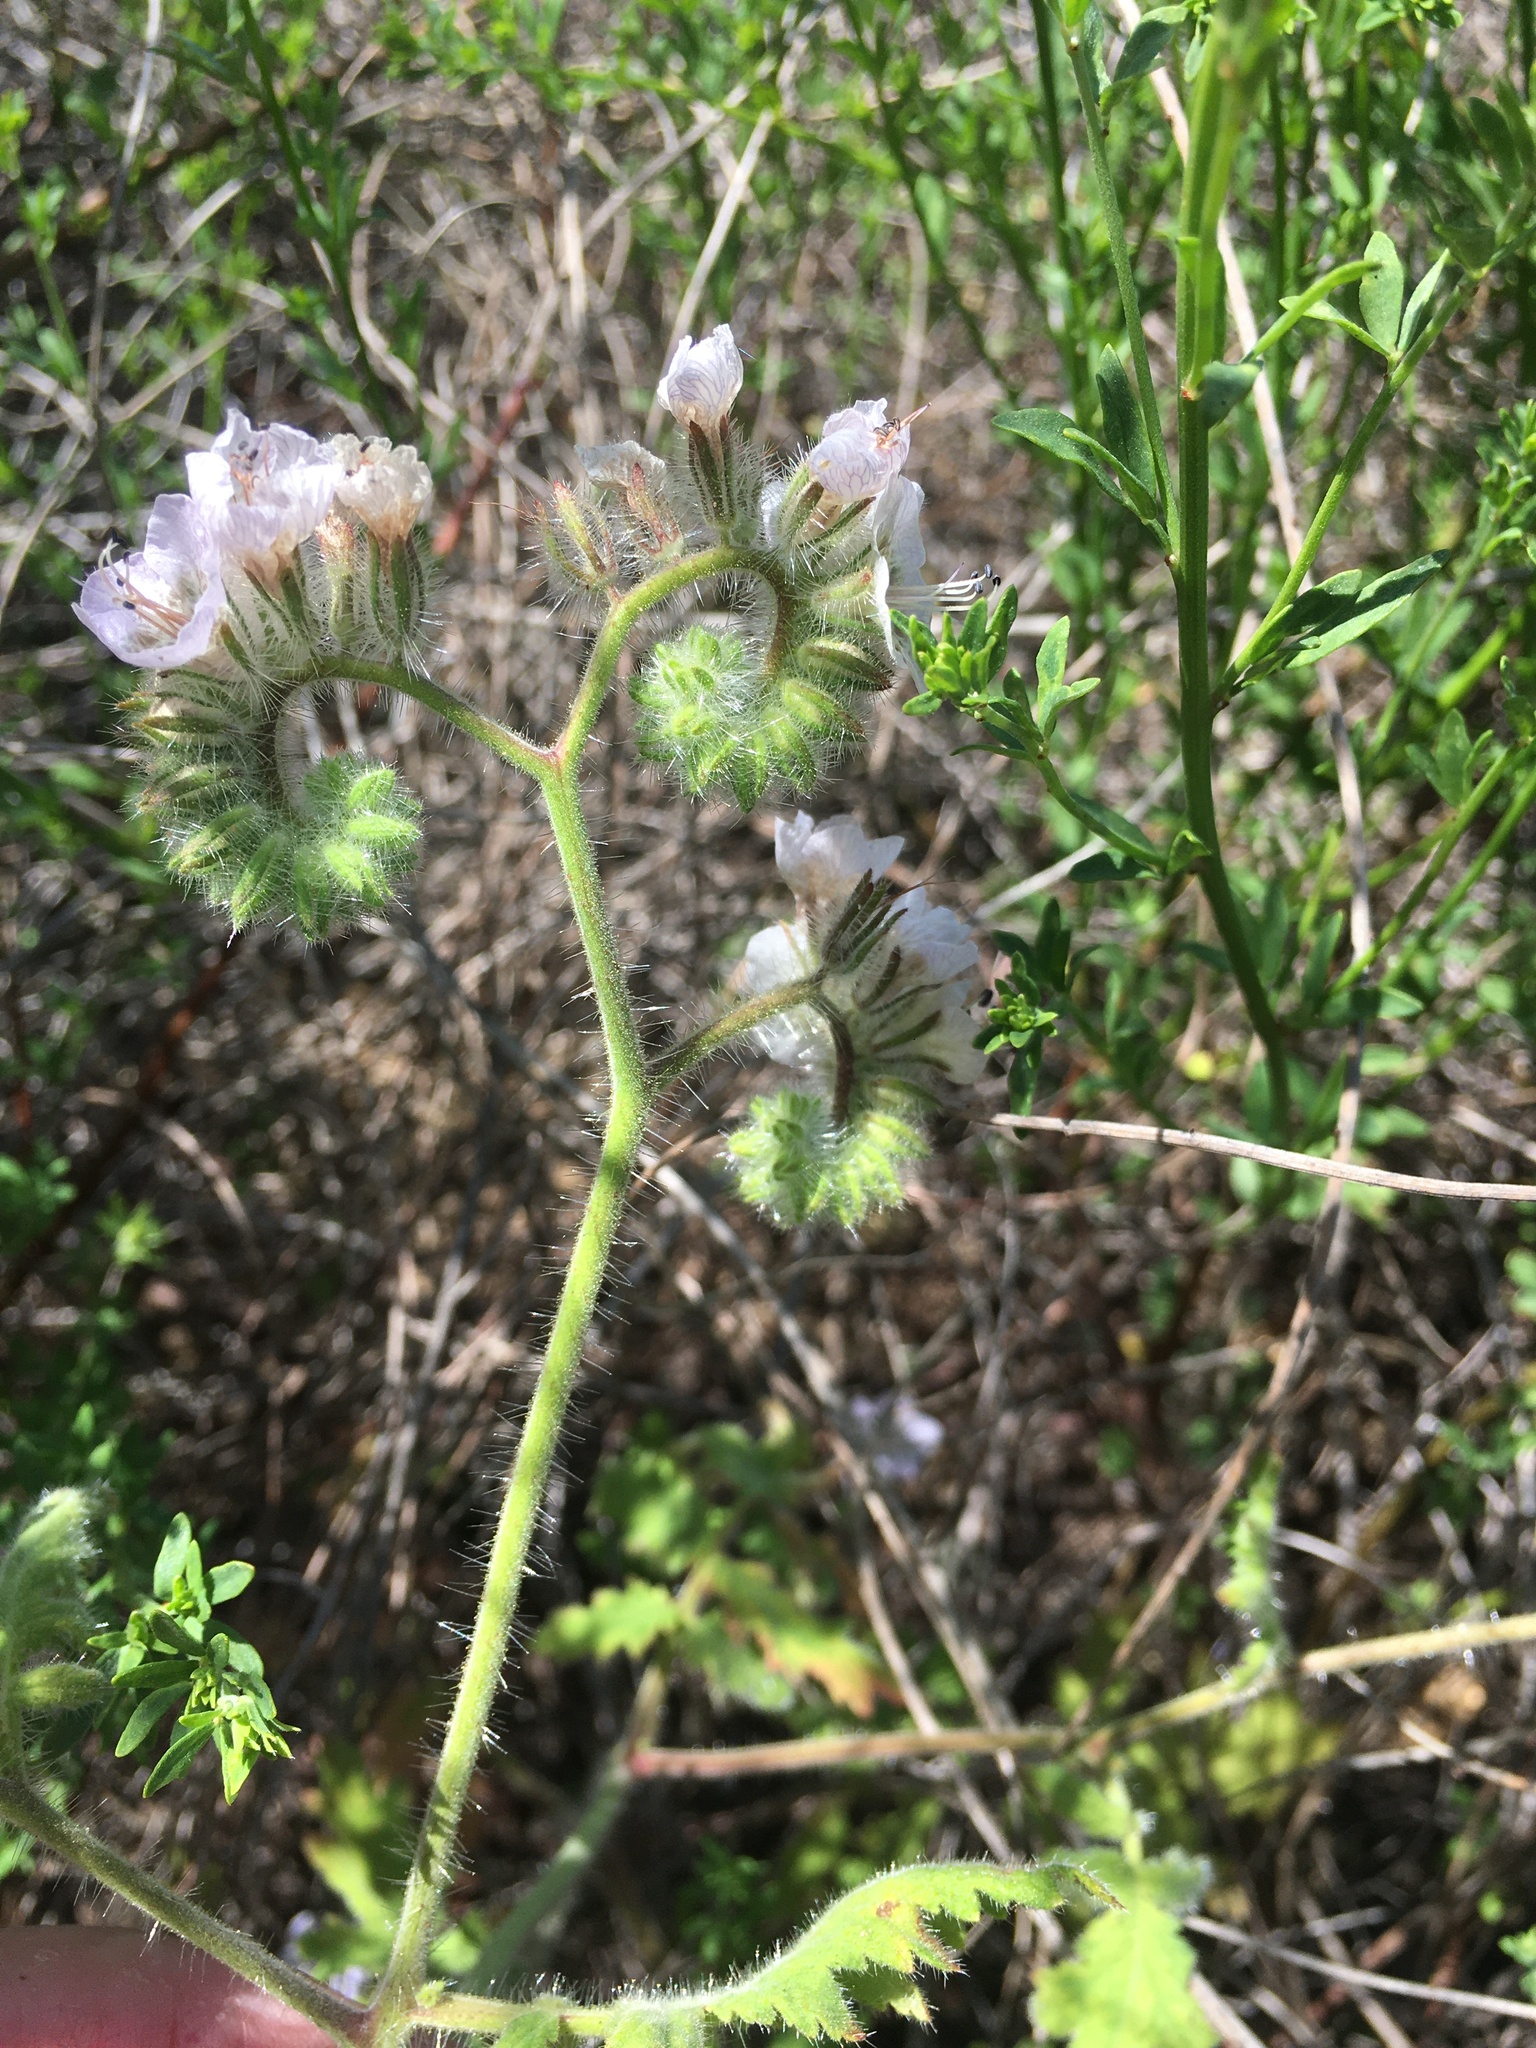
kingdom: Plantae
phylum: Tracheophyta
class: Magnoliopsida
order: Boraginales
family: Hydrophyllaceae
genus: Phacelia
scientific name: Phacelia cicutaria
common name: Caterpillar phacelia
